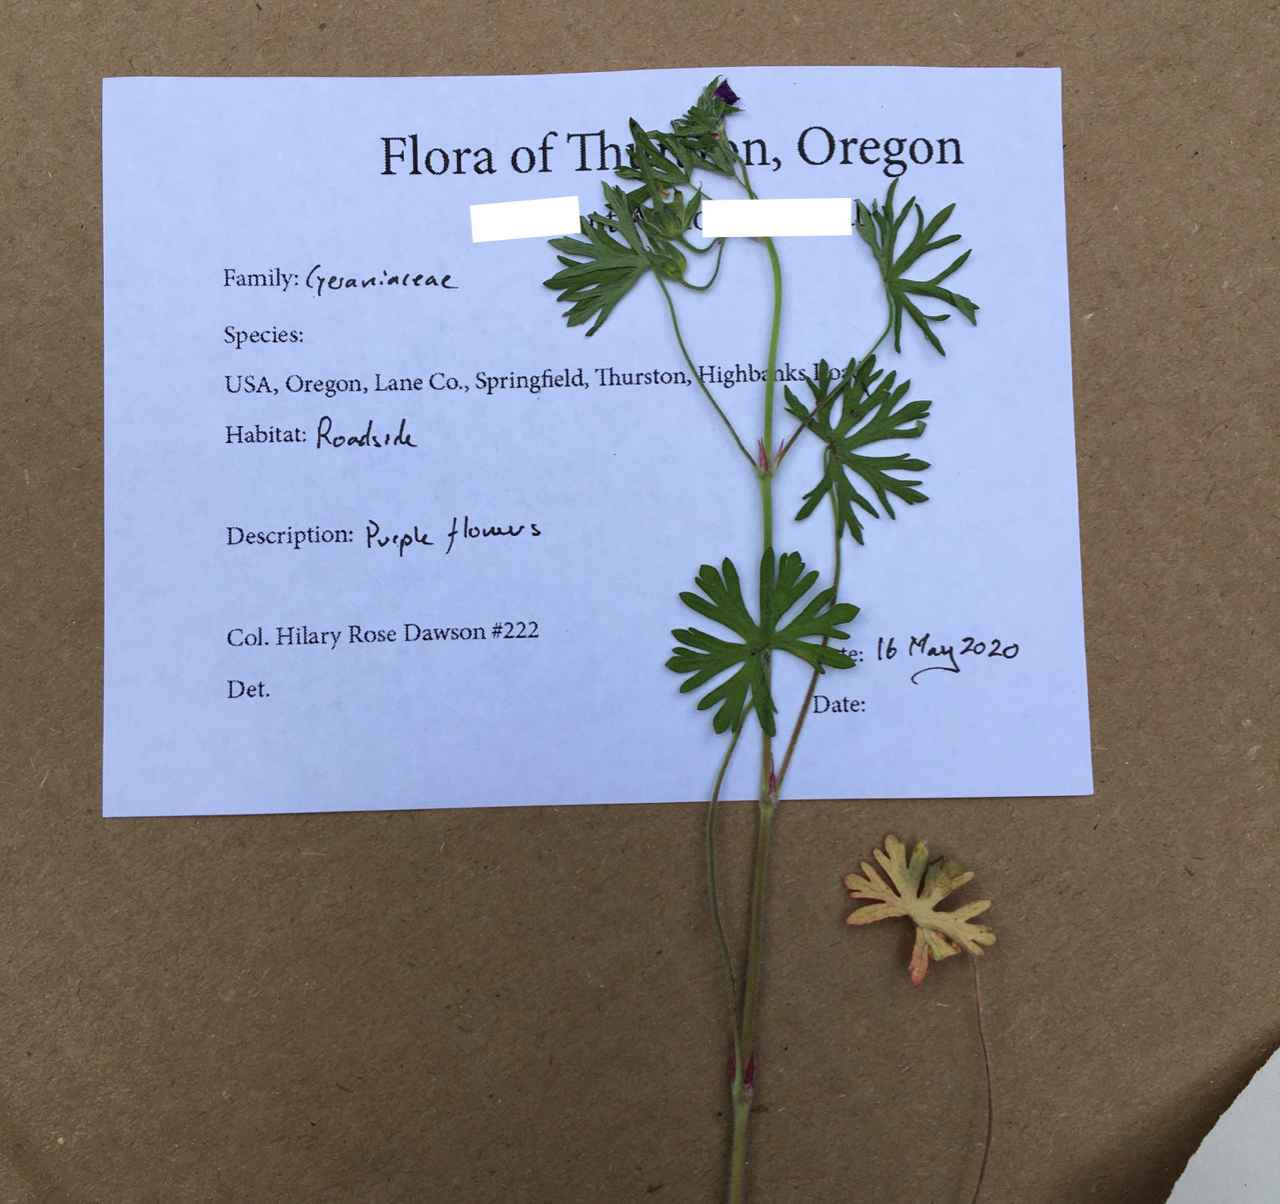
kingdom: Plantae
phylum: Tracheophyta
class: Magnoliopsida
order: Geraniales
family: Geraniaceae
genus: Geranium
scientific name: Geranium dissectum
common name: Cut-leaved crane's-bill
